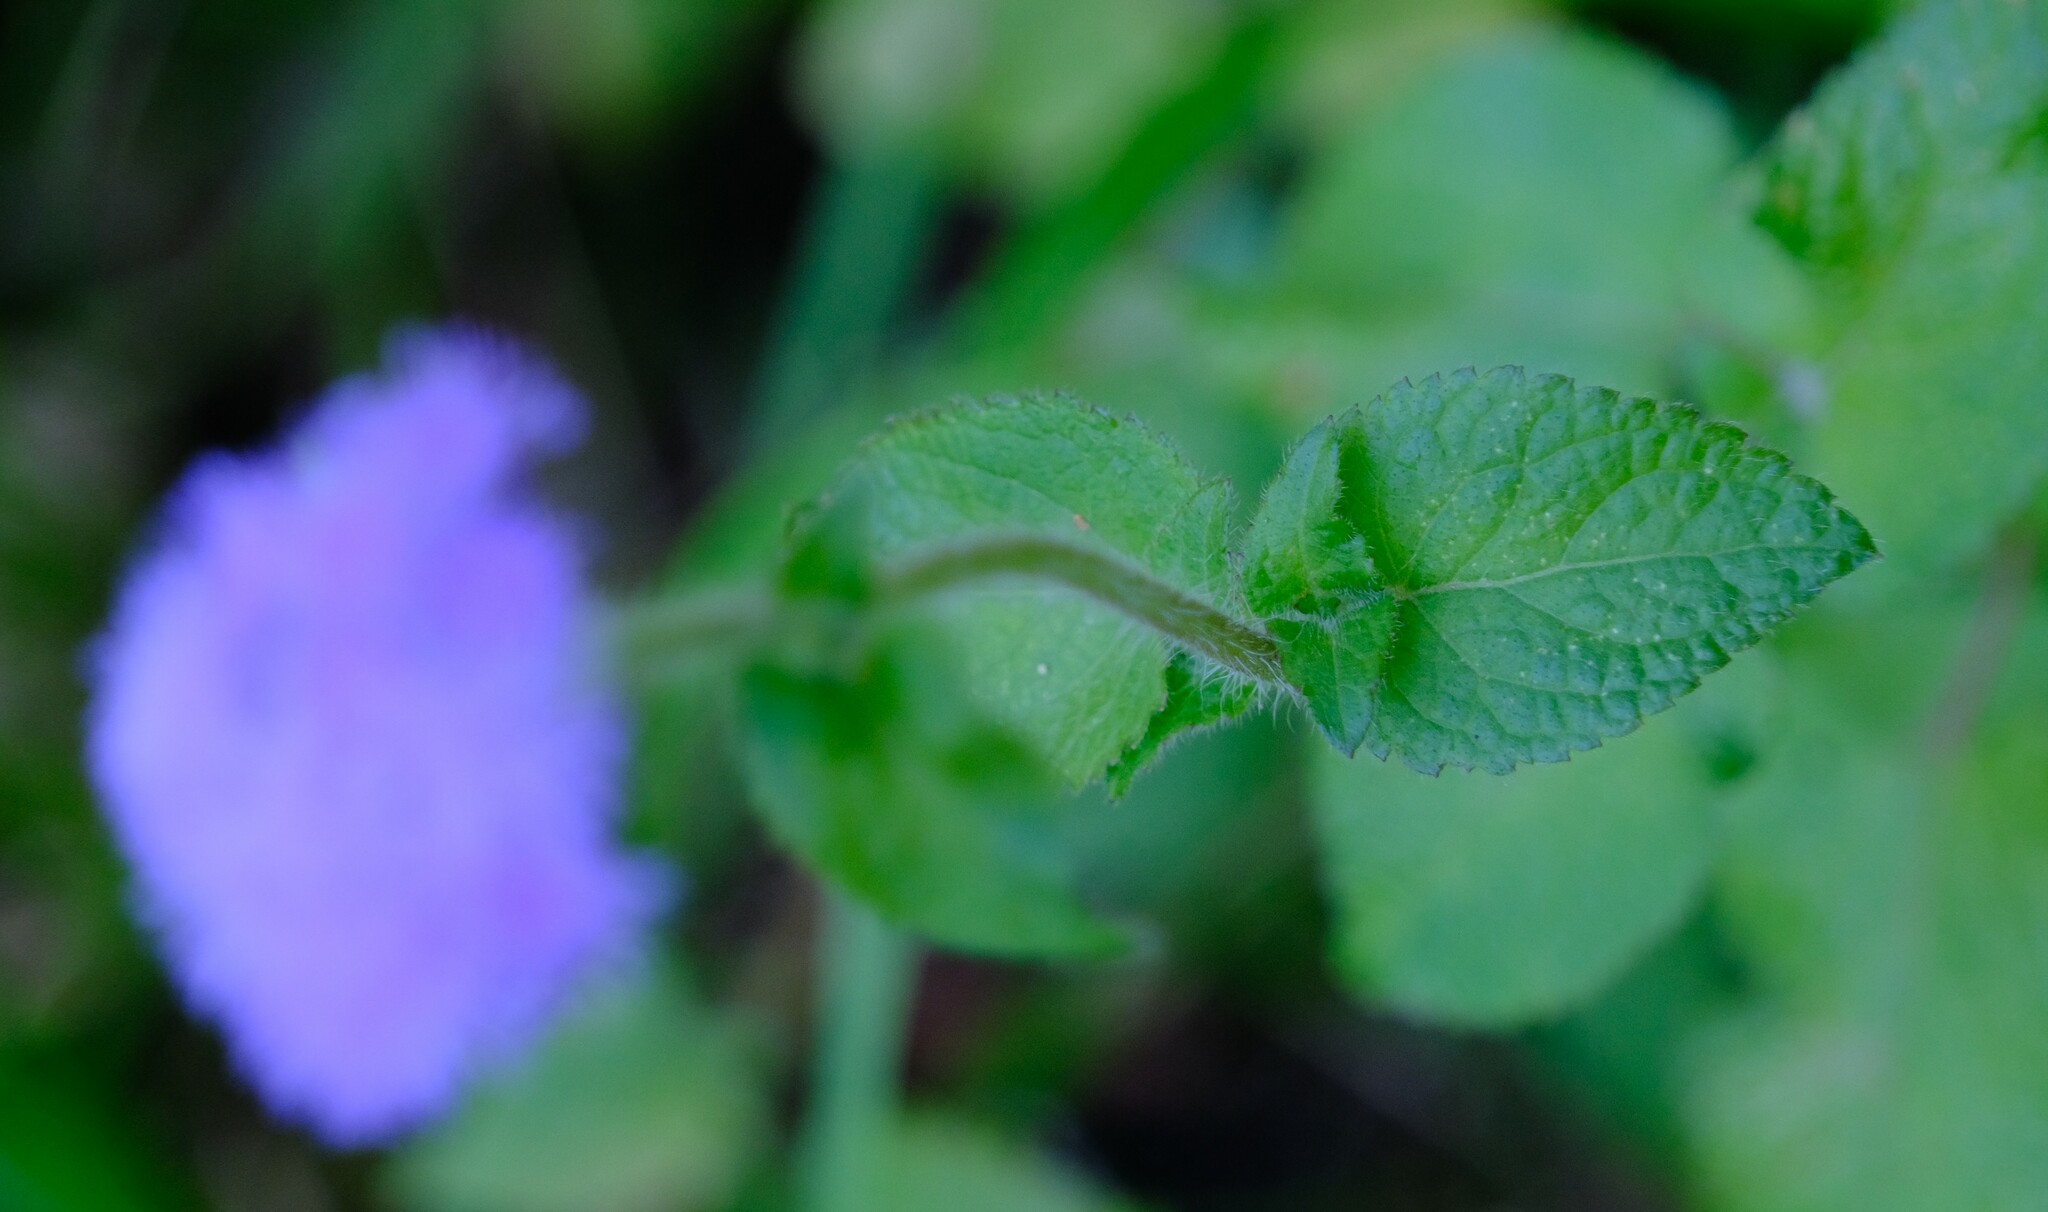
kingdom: Plantae
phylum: Tracheophyta
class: Magnoliopsida
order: Asterales
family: Asteraceae
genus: Ageratum
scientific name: Ageratum houstonianum
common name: Bluemink
